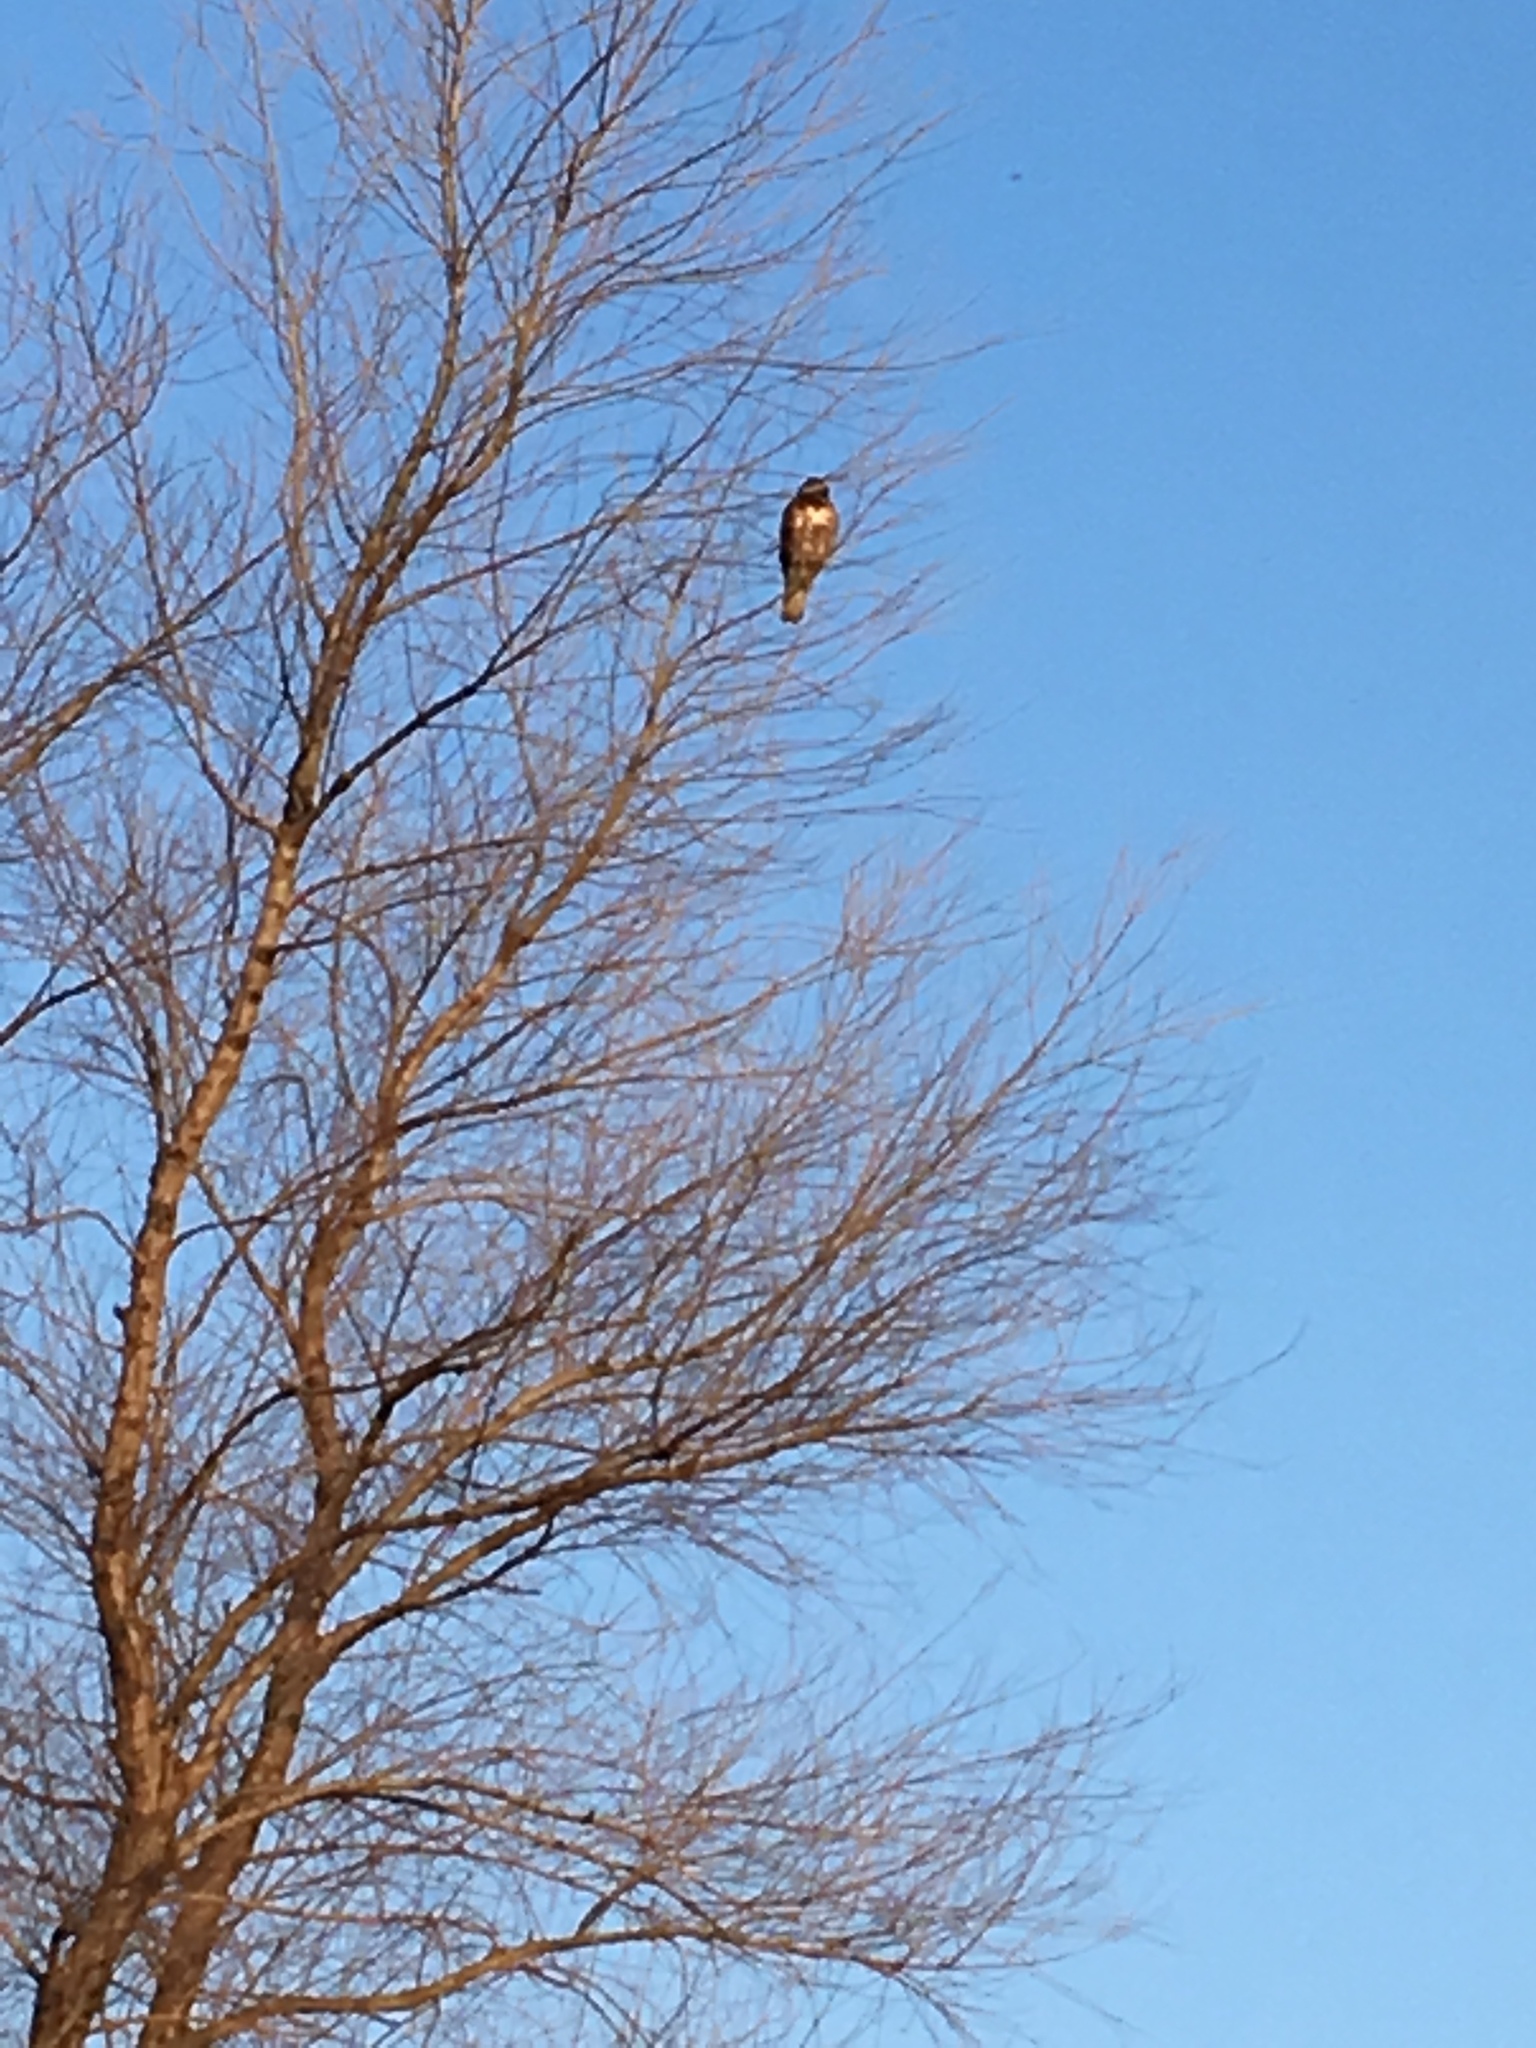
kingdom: Animalia
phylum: Chordata
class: Aves
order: Accipitriformes
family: Accipitridae
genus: Buteo
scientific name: Buteo jamaicensis
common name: Red-tailed hawk
